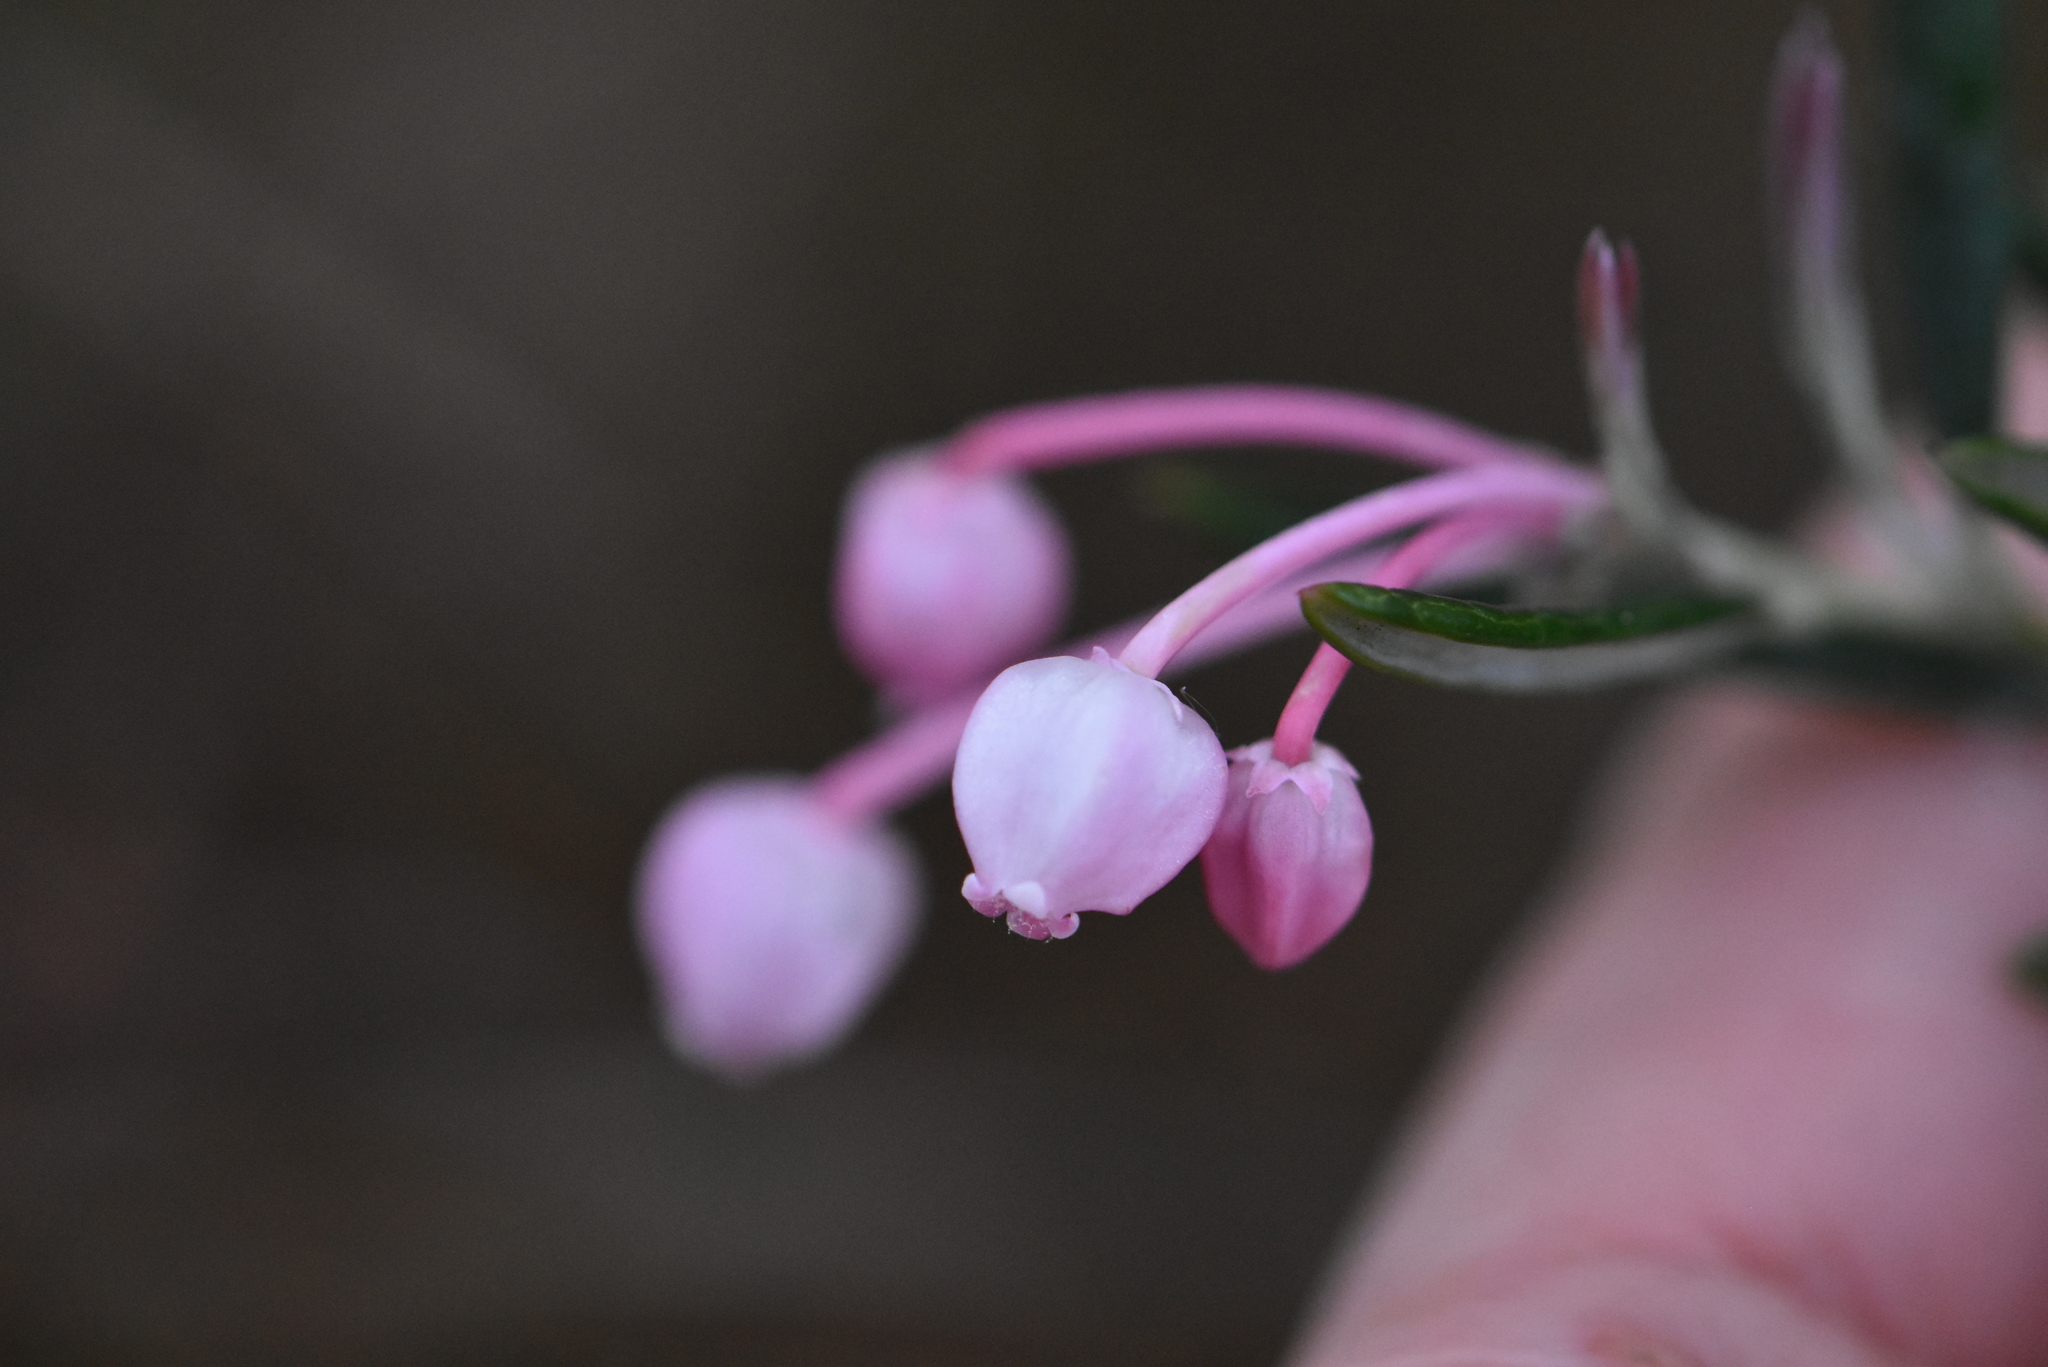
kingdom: Plantae
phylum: Tracheophyta
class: Magnoliopsida
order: Ericales
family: Ericaceae
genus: Andromeda
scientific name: Andromeda polifolia
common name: Bog-rosemary
